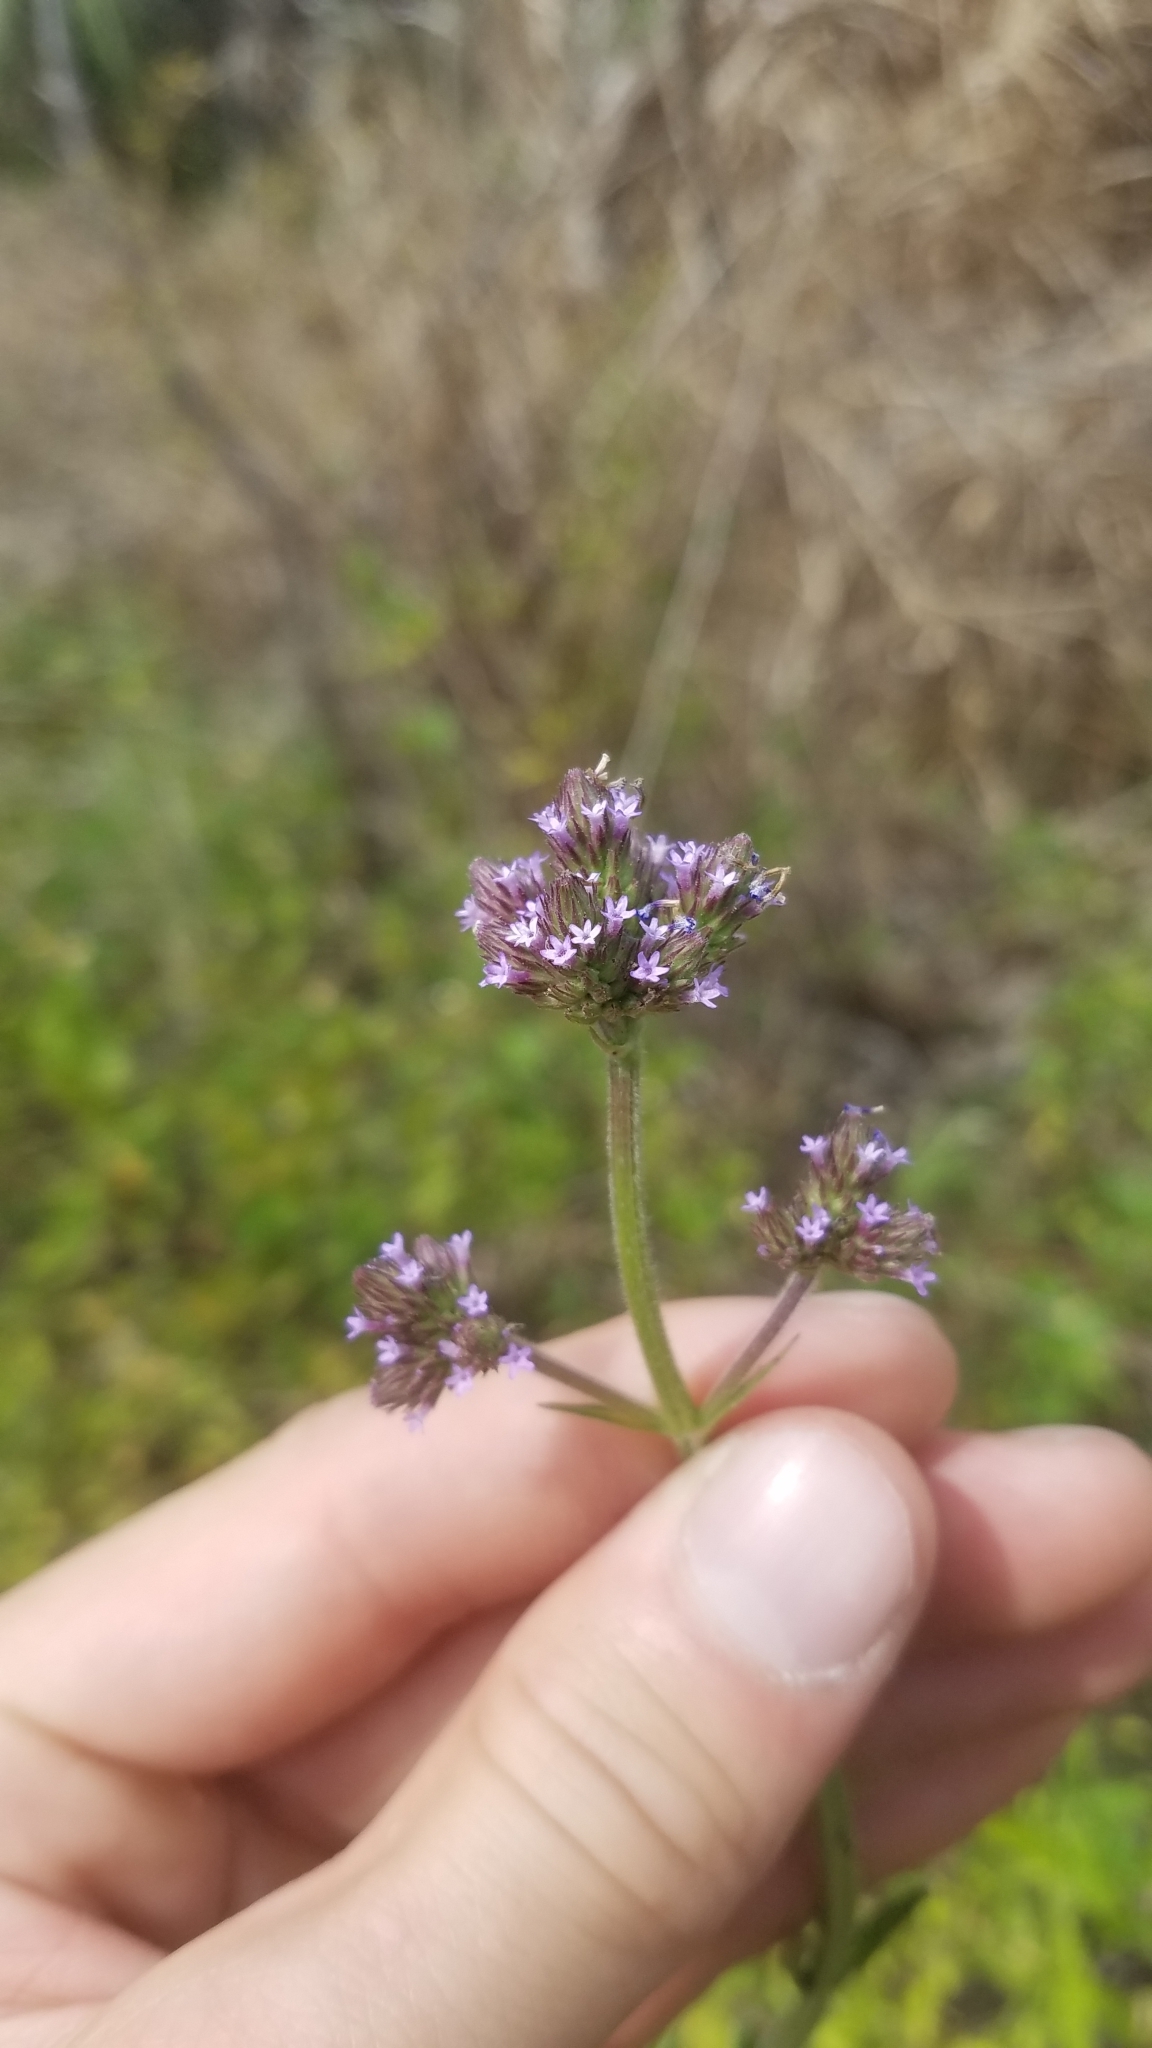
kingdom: Plantae
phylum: Tracheophyta
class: Magnoliopsida
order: Lamiales
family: Verbenaceae
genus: Verbena
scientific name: Verbena brasiliensis
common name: Brazilian vervain
